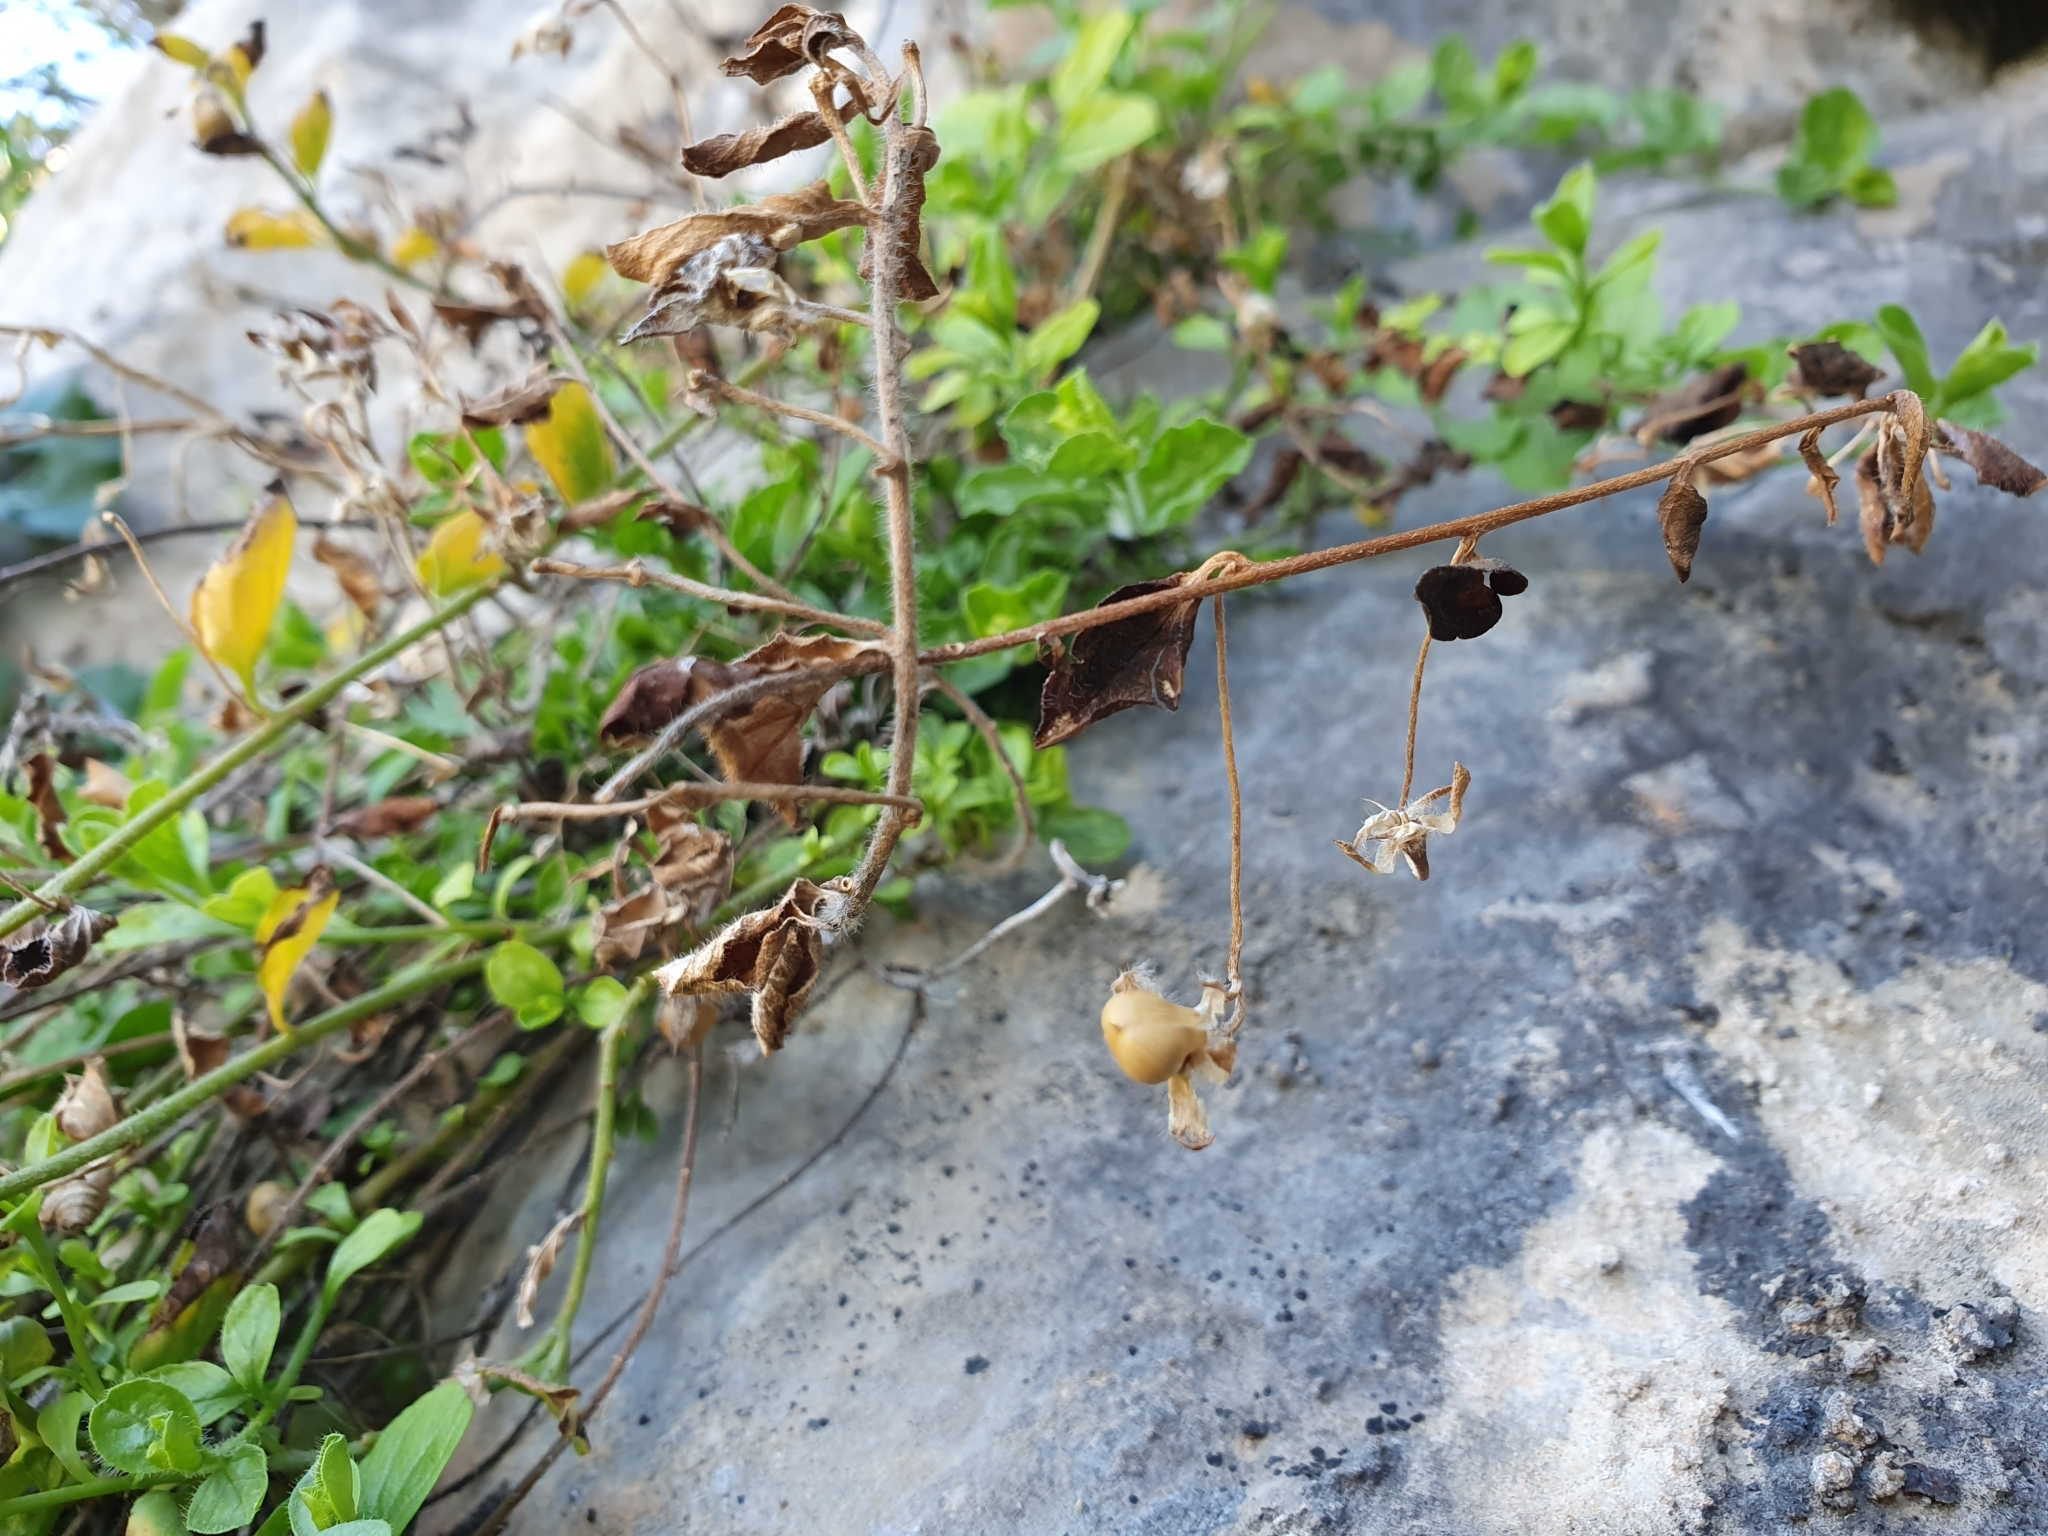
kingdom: Plantae
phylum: Tracheophyta
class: Magnoliopsida
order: Solanales
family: Convolvulaceae
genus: Convolvulus
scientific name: Convolvulus sabatius
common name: Ground blue-convolvulus
